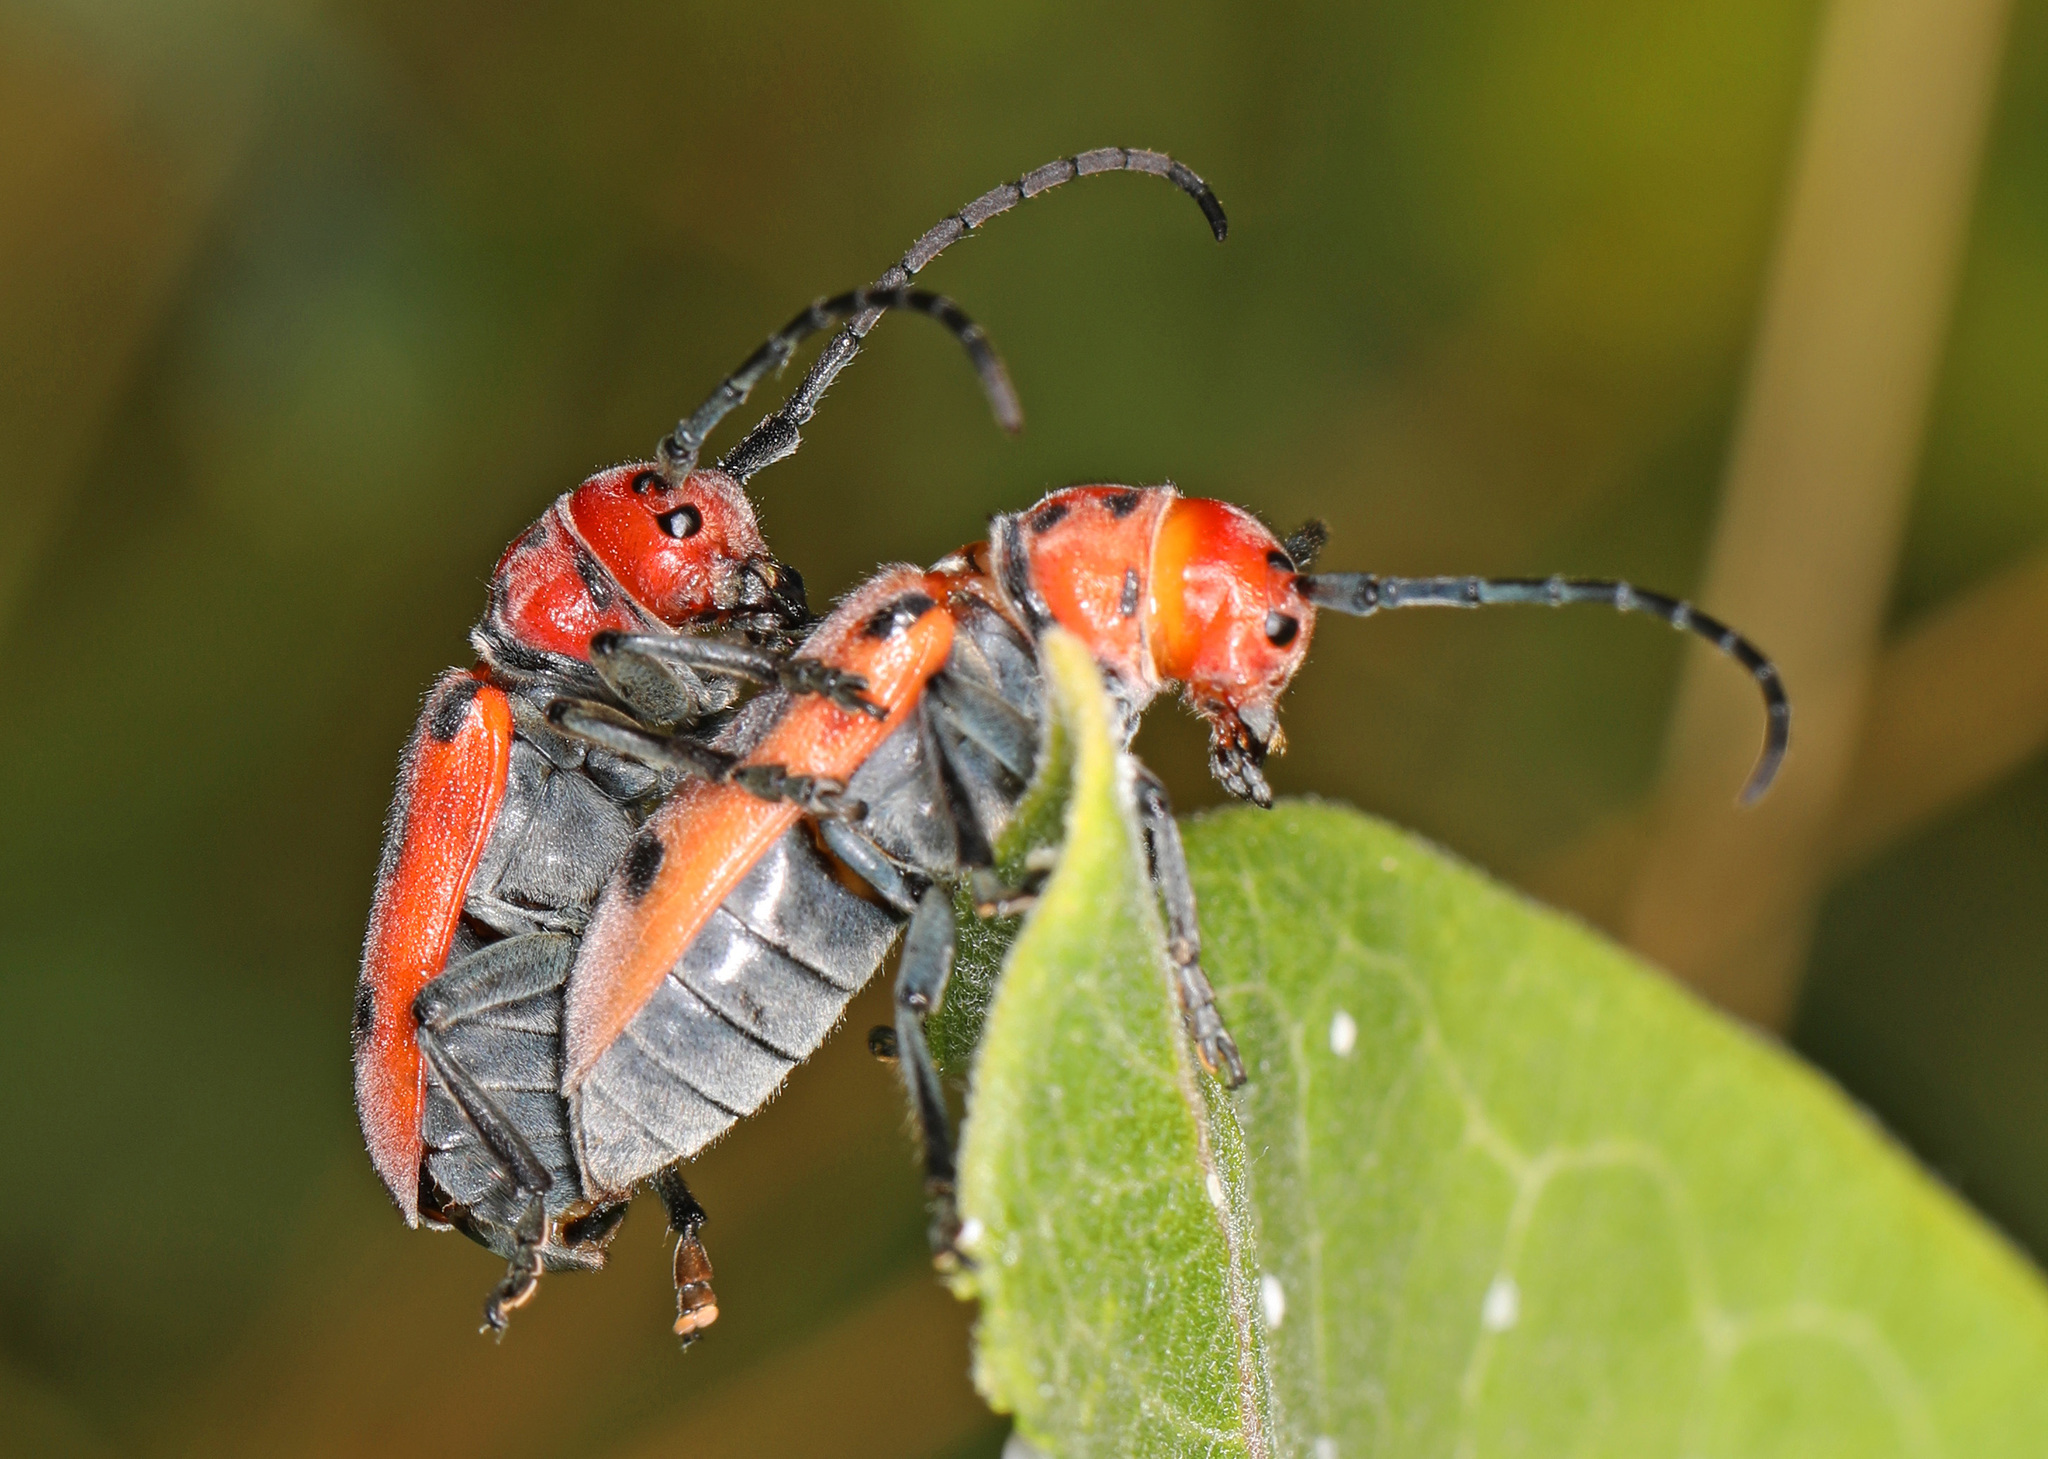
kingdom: Animalia
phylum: Arthropoda
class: Insecta
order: Coleoptera
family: Cerambycidae
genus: Tetraopes
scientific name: Tetraopes tetrophthalmus
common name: Red milkweed beetle
